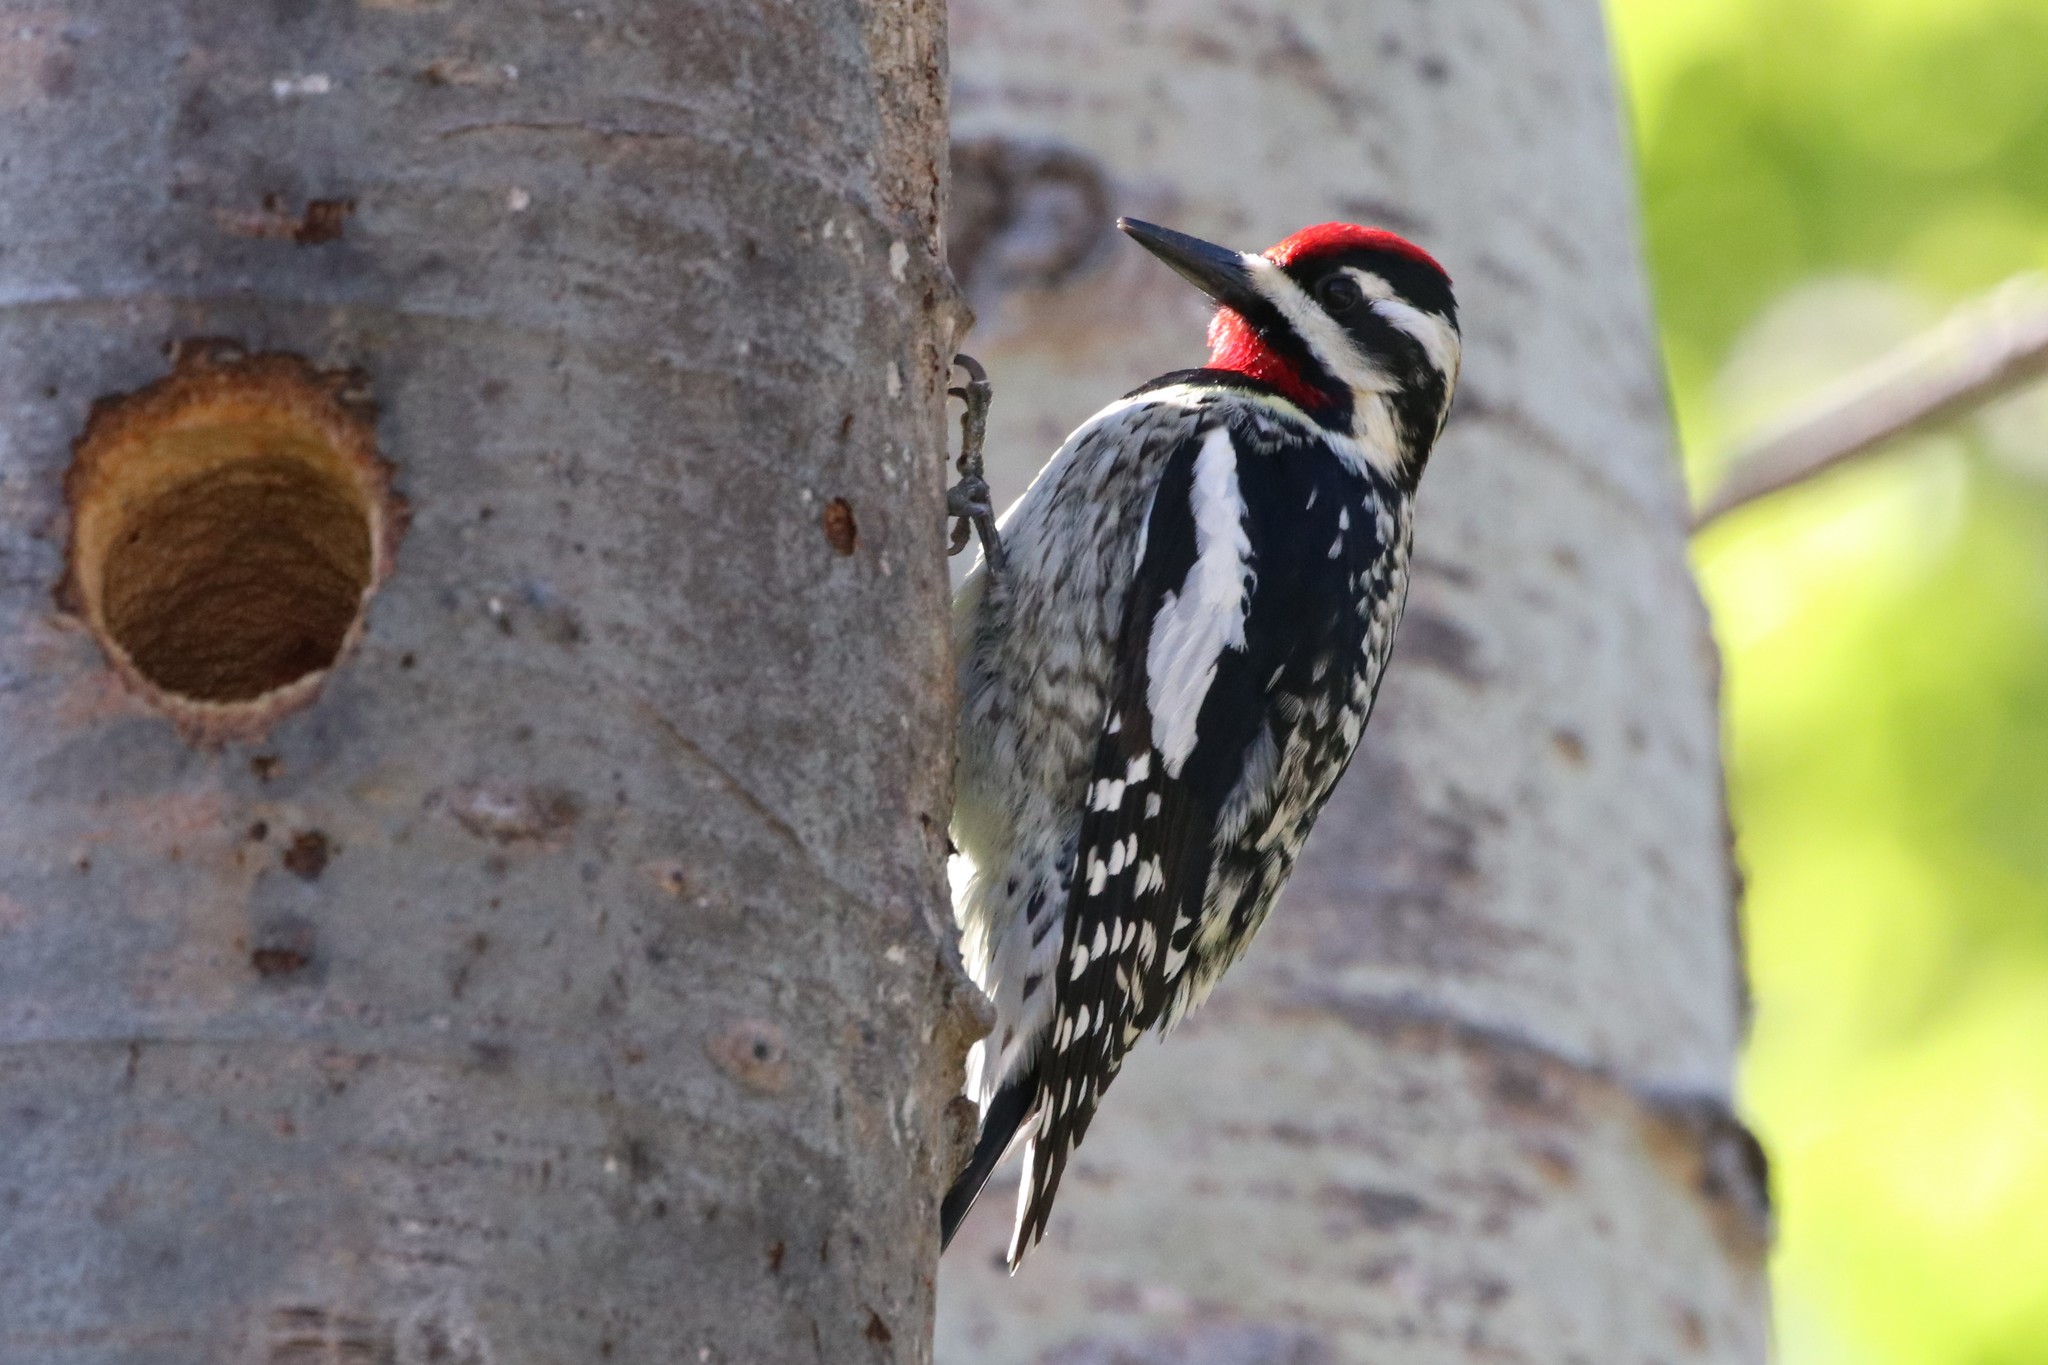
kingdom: Animalia
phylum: Chordata
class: Aves
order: Piciformes
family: Picidae
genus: Sphyrapicus
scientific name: Sphyrapicus varius
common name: Yellow-bellied sapsucker
